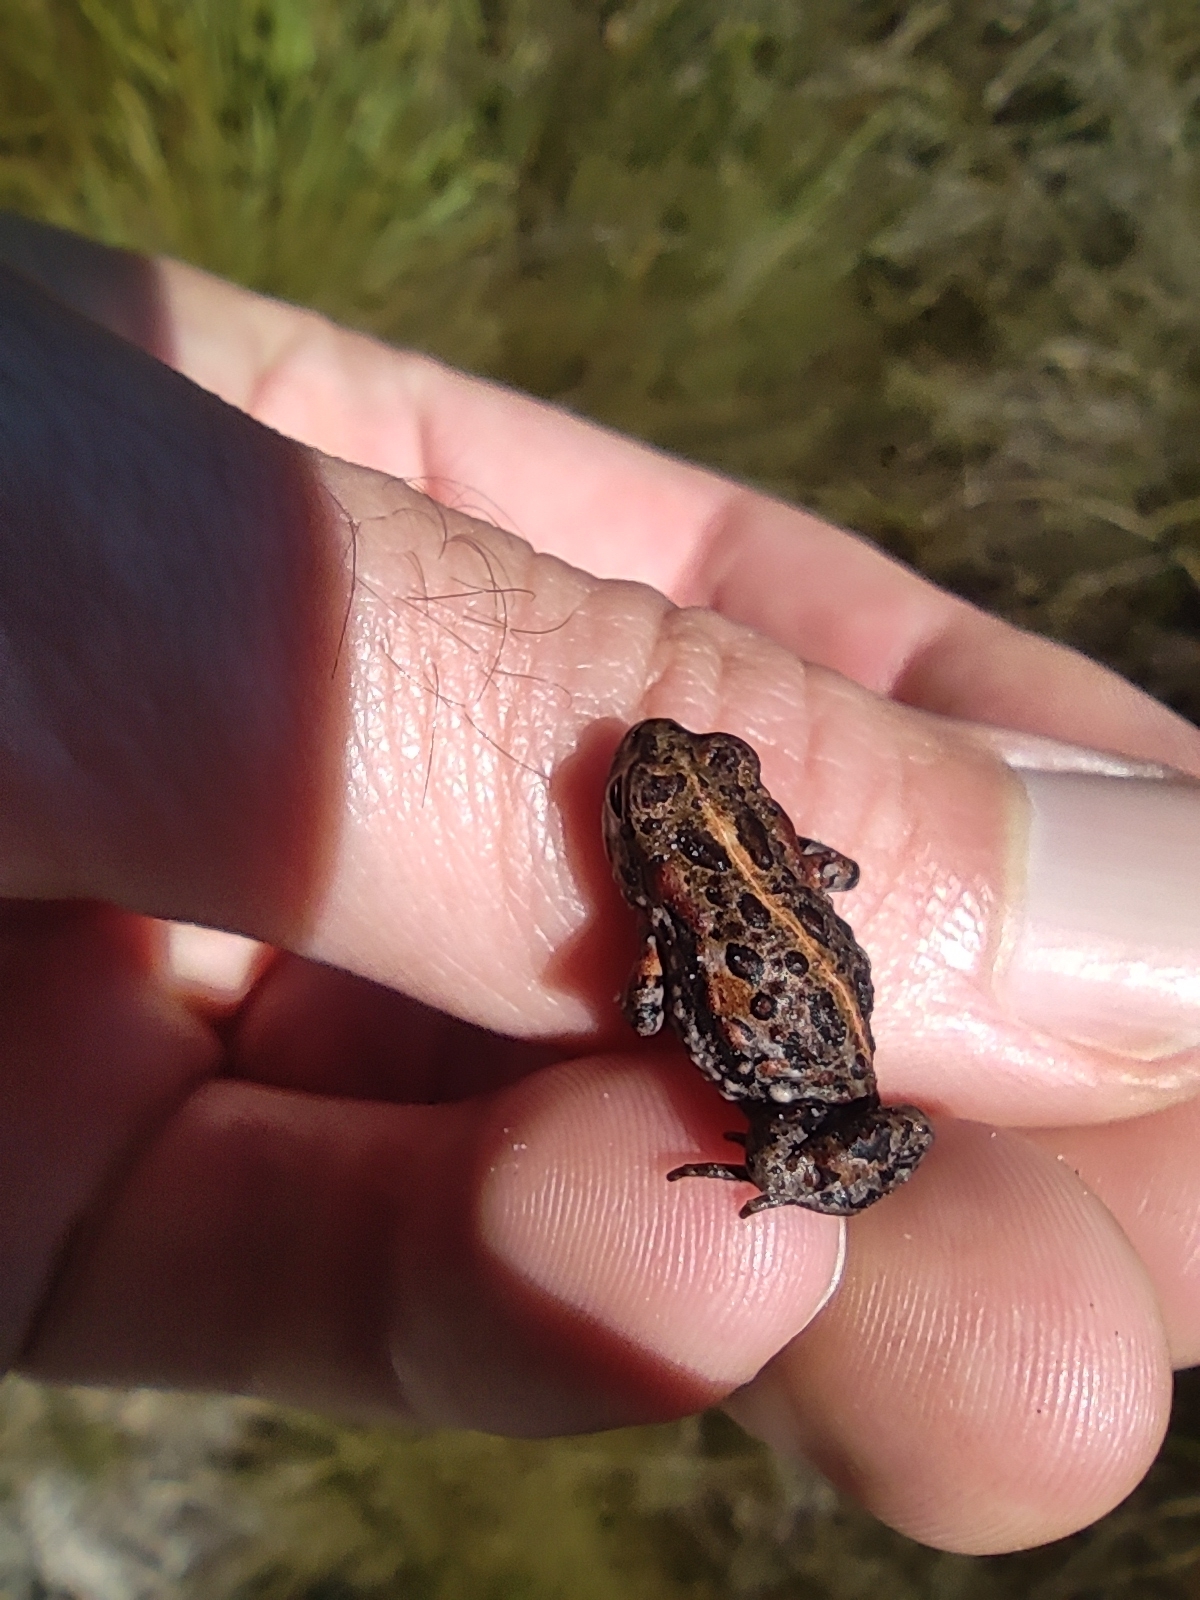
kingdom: Animalia
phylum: Chordata
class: Amphibia
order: Anura
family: Bufonidae
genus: Capensibufo
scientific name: Capensibufo magistratus
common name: Landdroskop mountain toadlet
